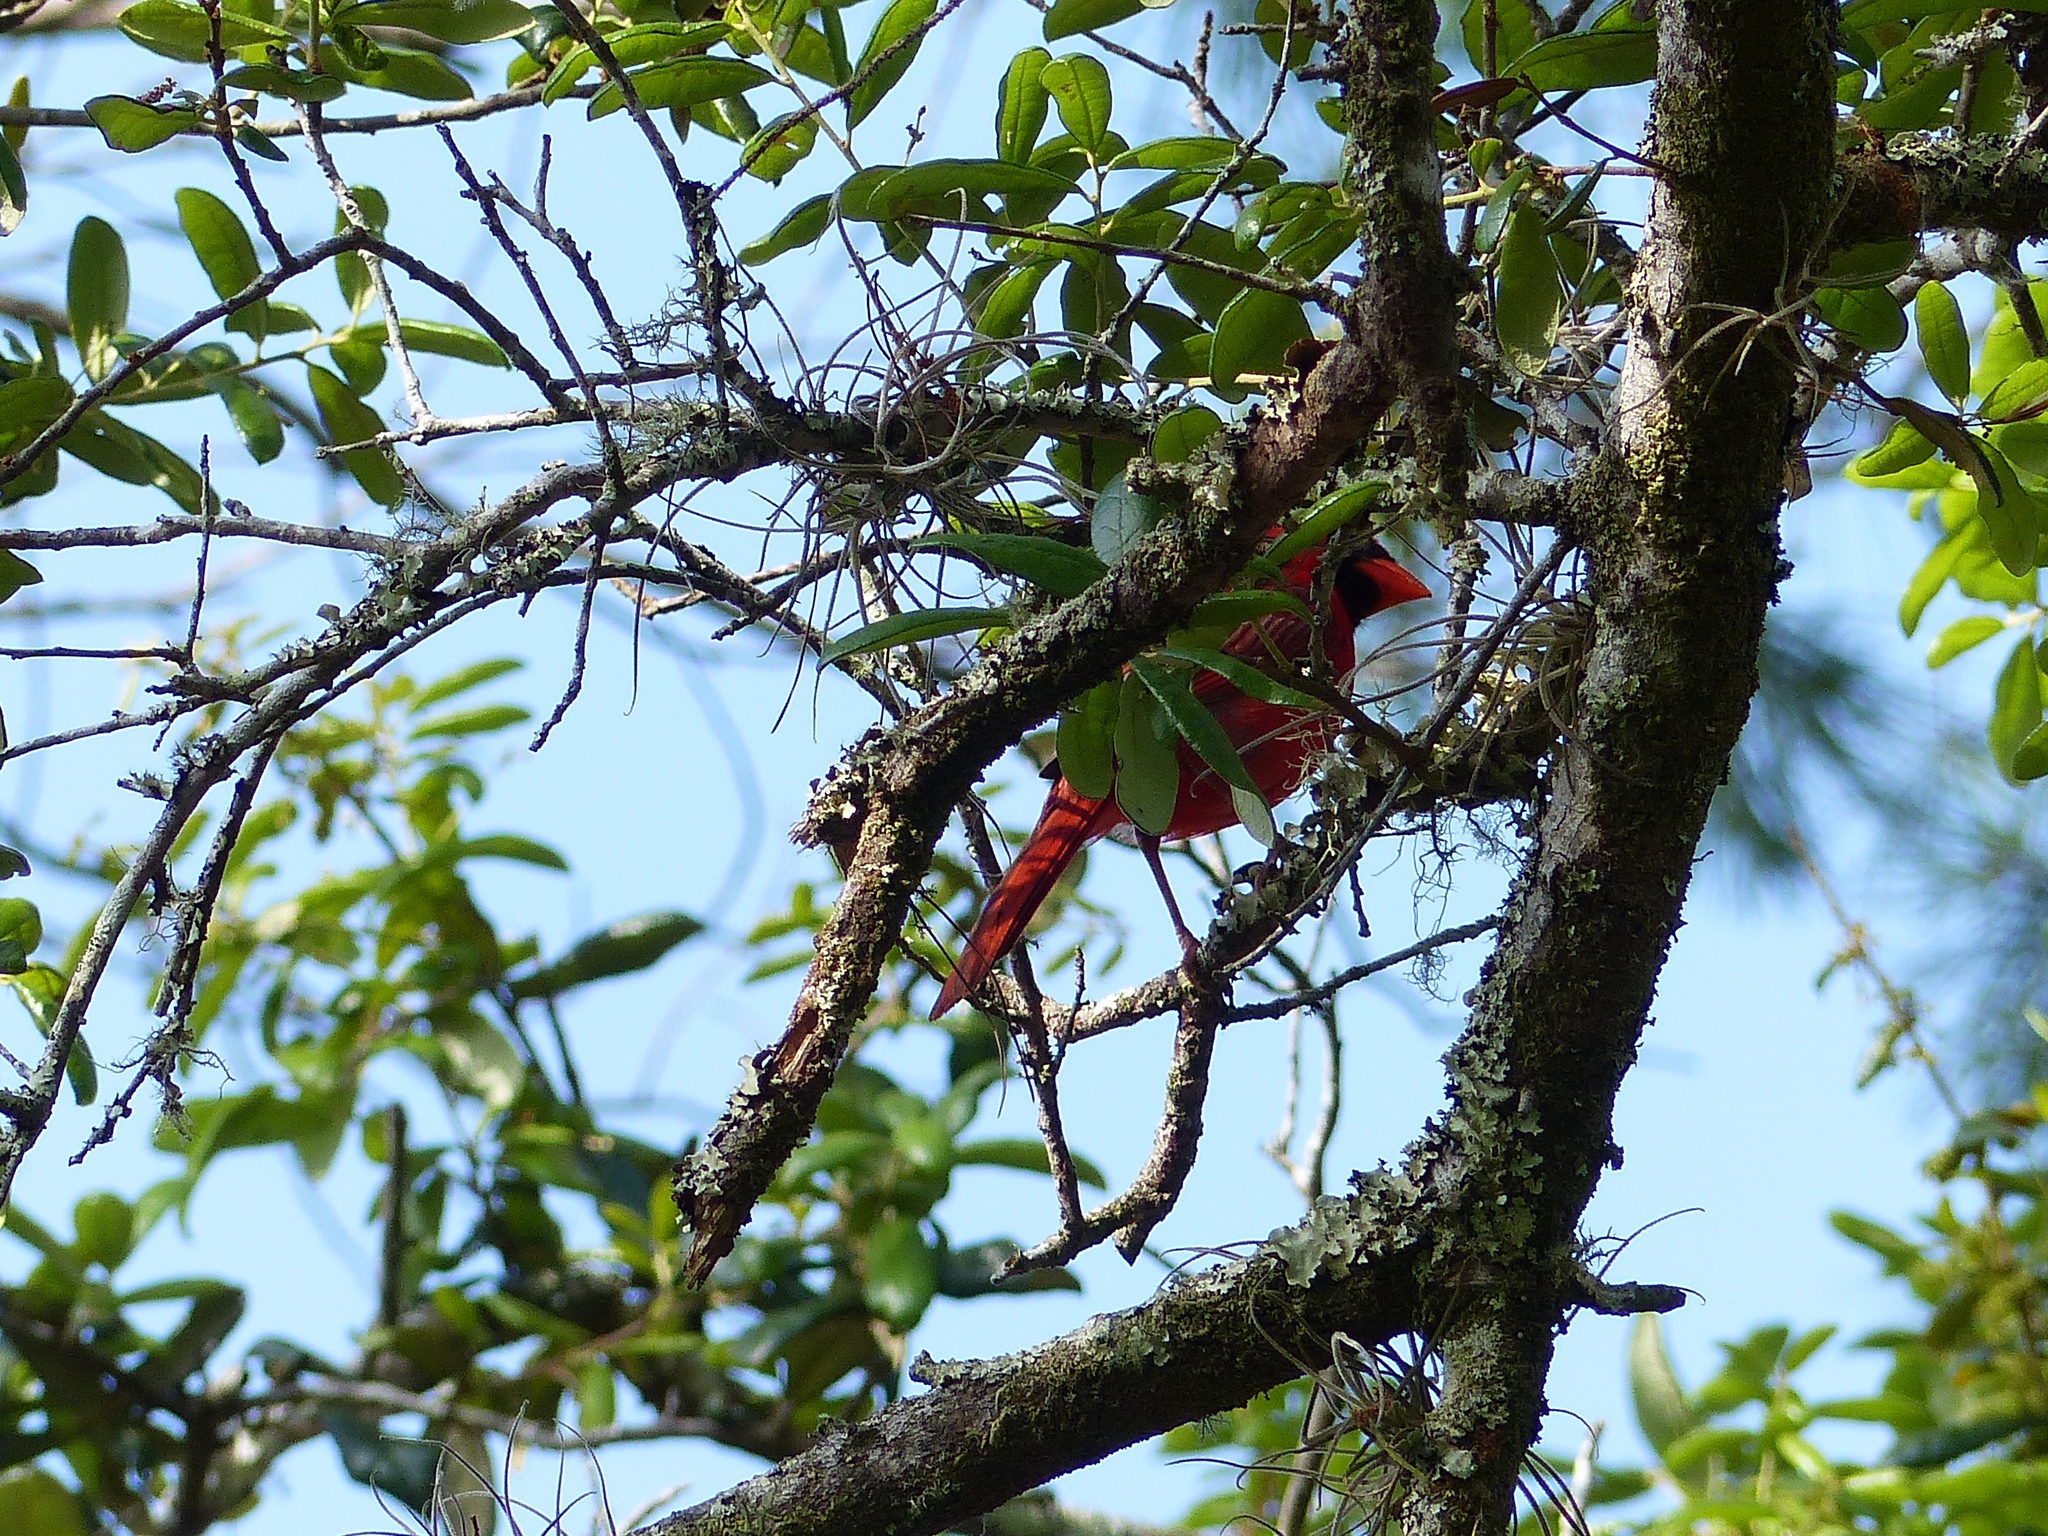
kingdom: Animalia
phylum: Chordata
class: Aves
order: Passeriformes
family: Cardinalidae
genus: Cardinalis
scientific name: Cardinalis cardinalis
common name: Northern cardinal
